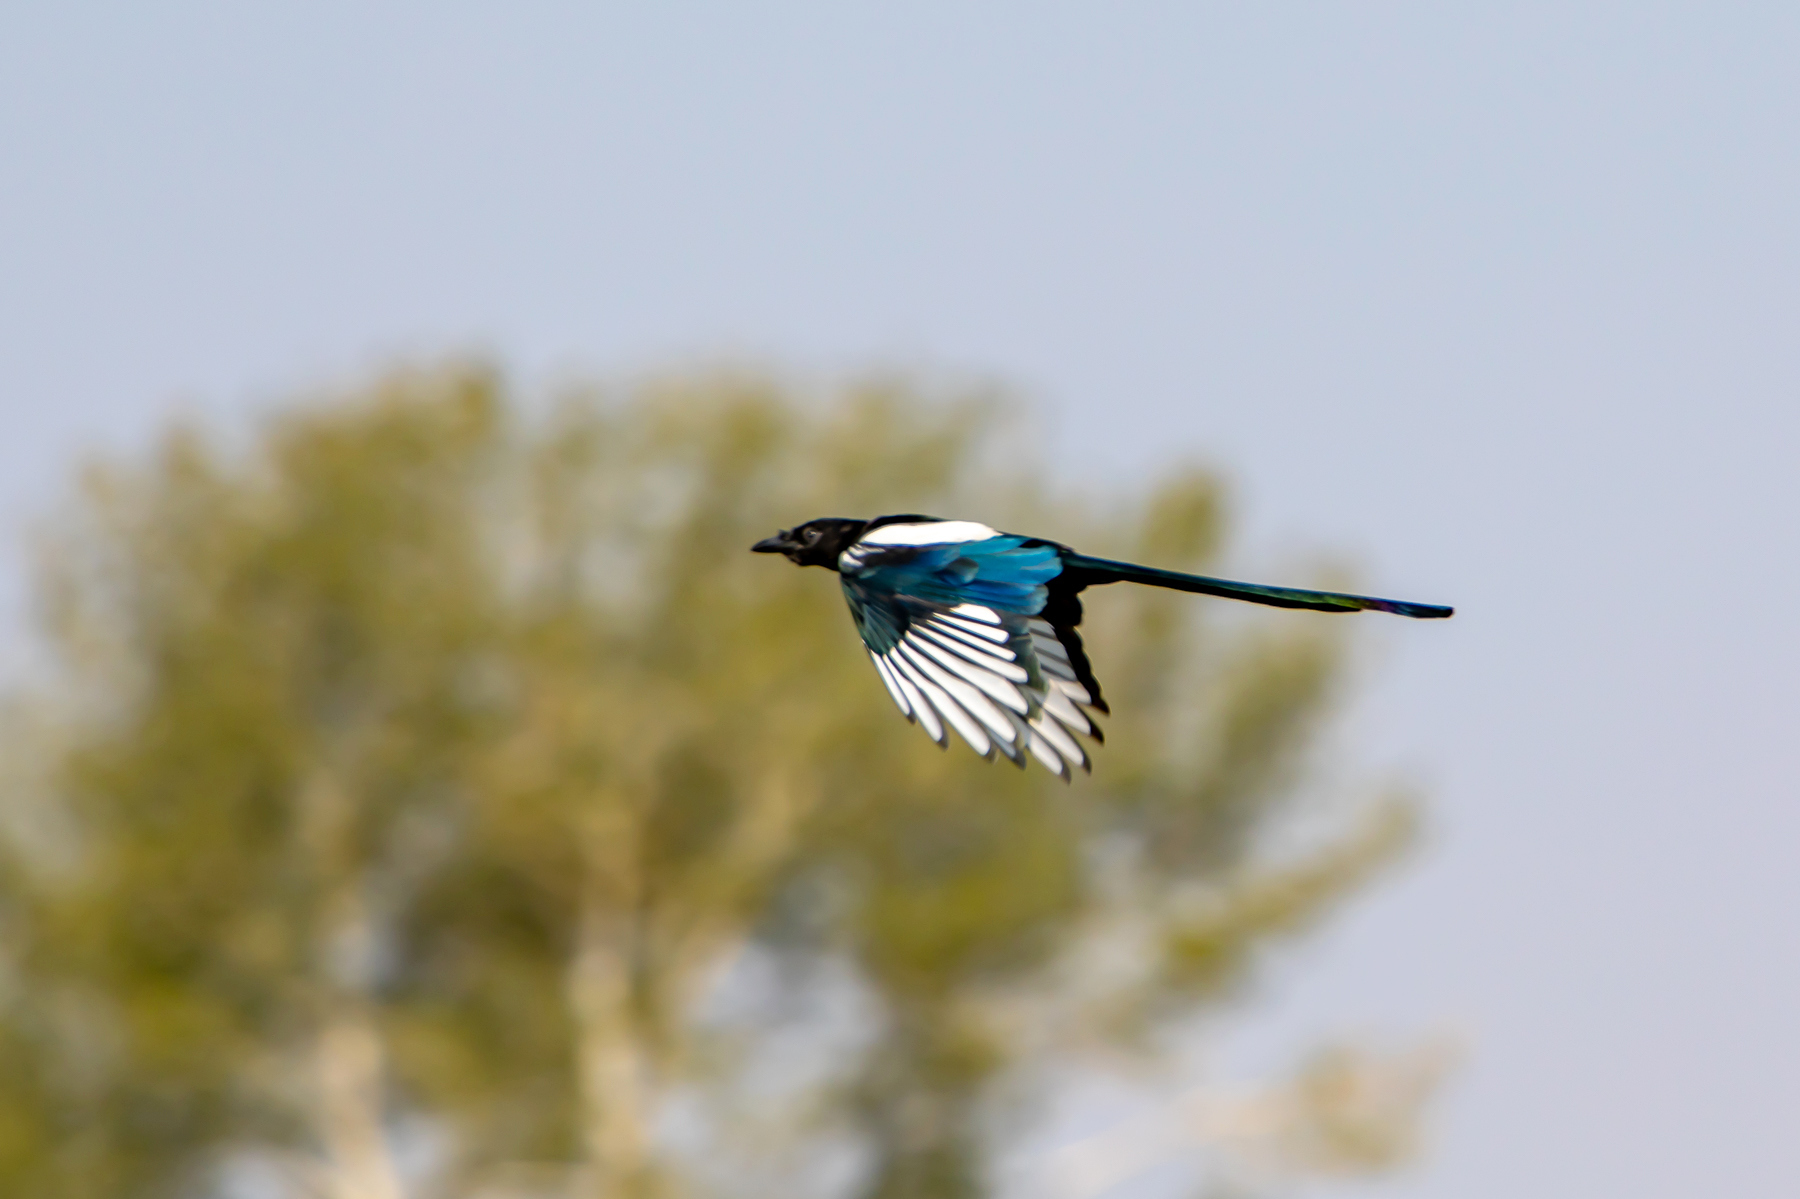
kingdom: Animalia
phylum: Chordata
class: Aves
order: Passeriformes
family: Corvidae
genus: Pica
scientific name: Pica hudsonia
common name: Black-billed magpie
